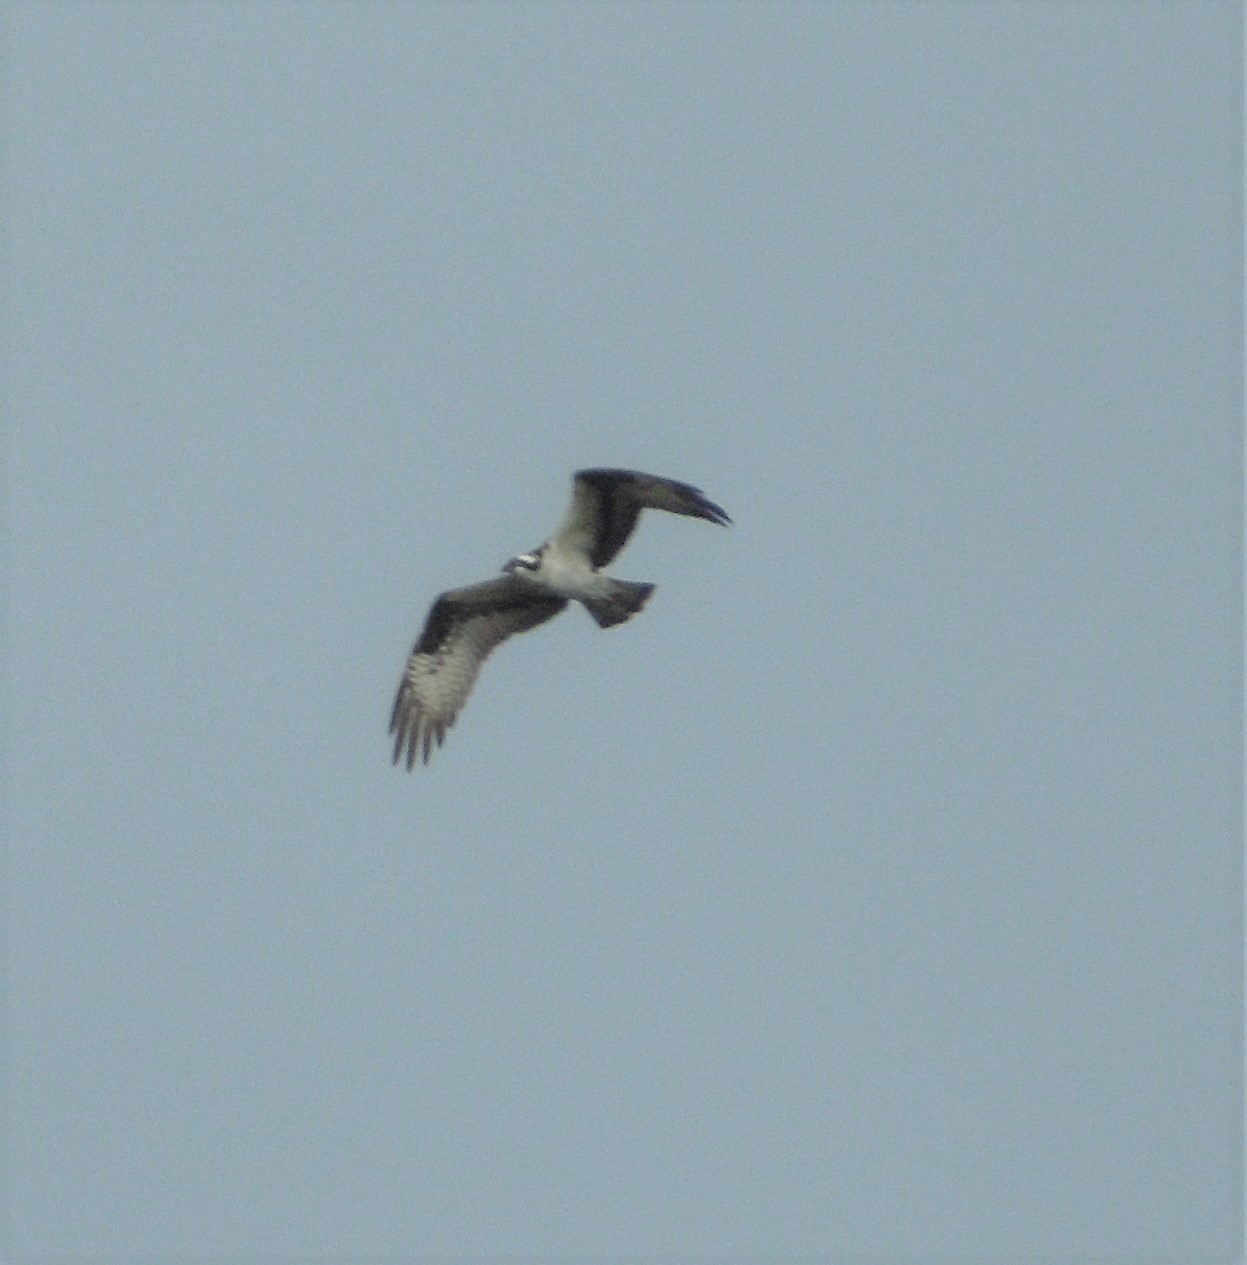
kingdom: Animalia
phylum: Chordata
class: Aves
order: Accipitriformes
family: Pandionidae
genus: Pandion
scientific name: Pandion haliaetus
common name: Osprey
